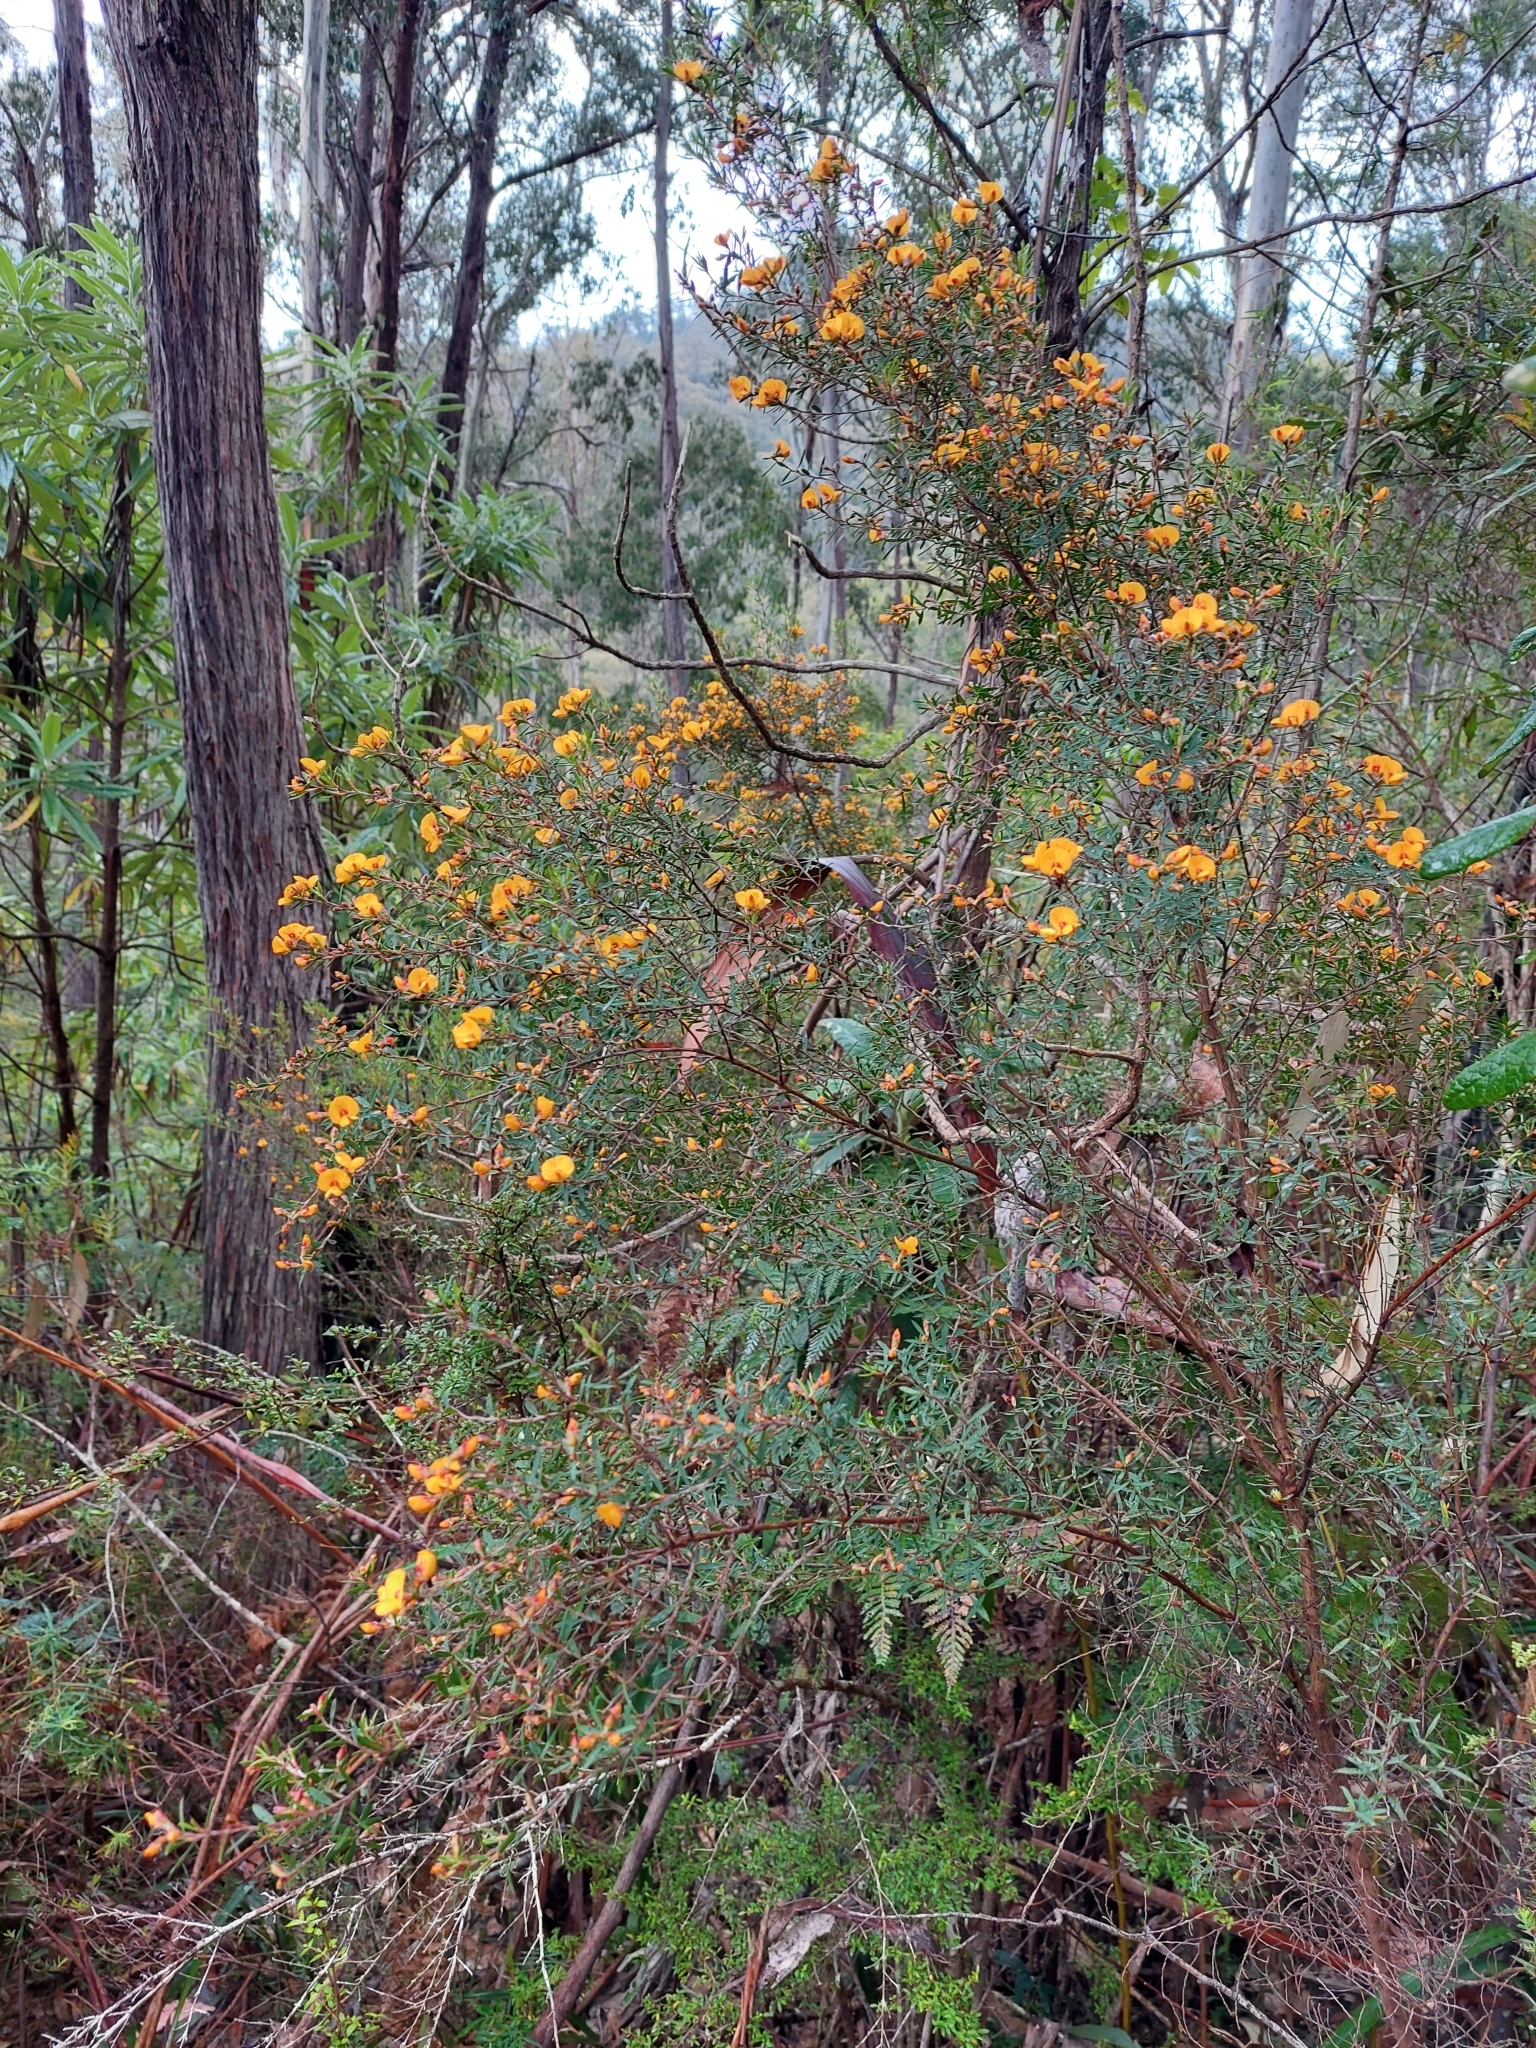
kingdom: Plantae
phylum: Tracheophyta
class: Magnoliopsida
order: Fabales
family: Fabaceae
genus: Pultenaea
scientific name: Pultenaea juniperina
